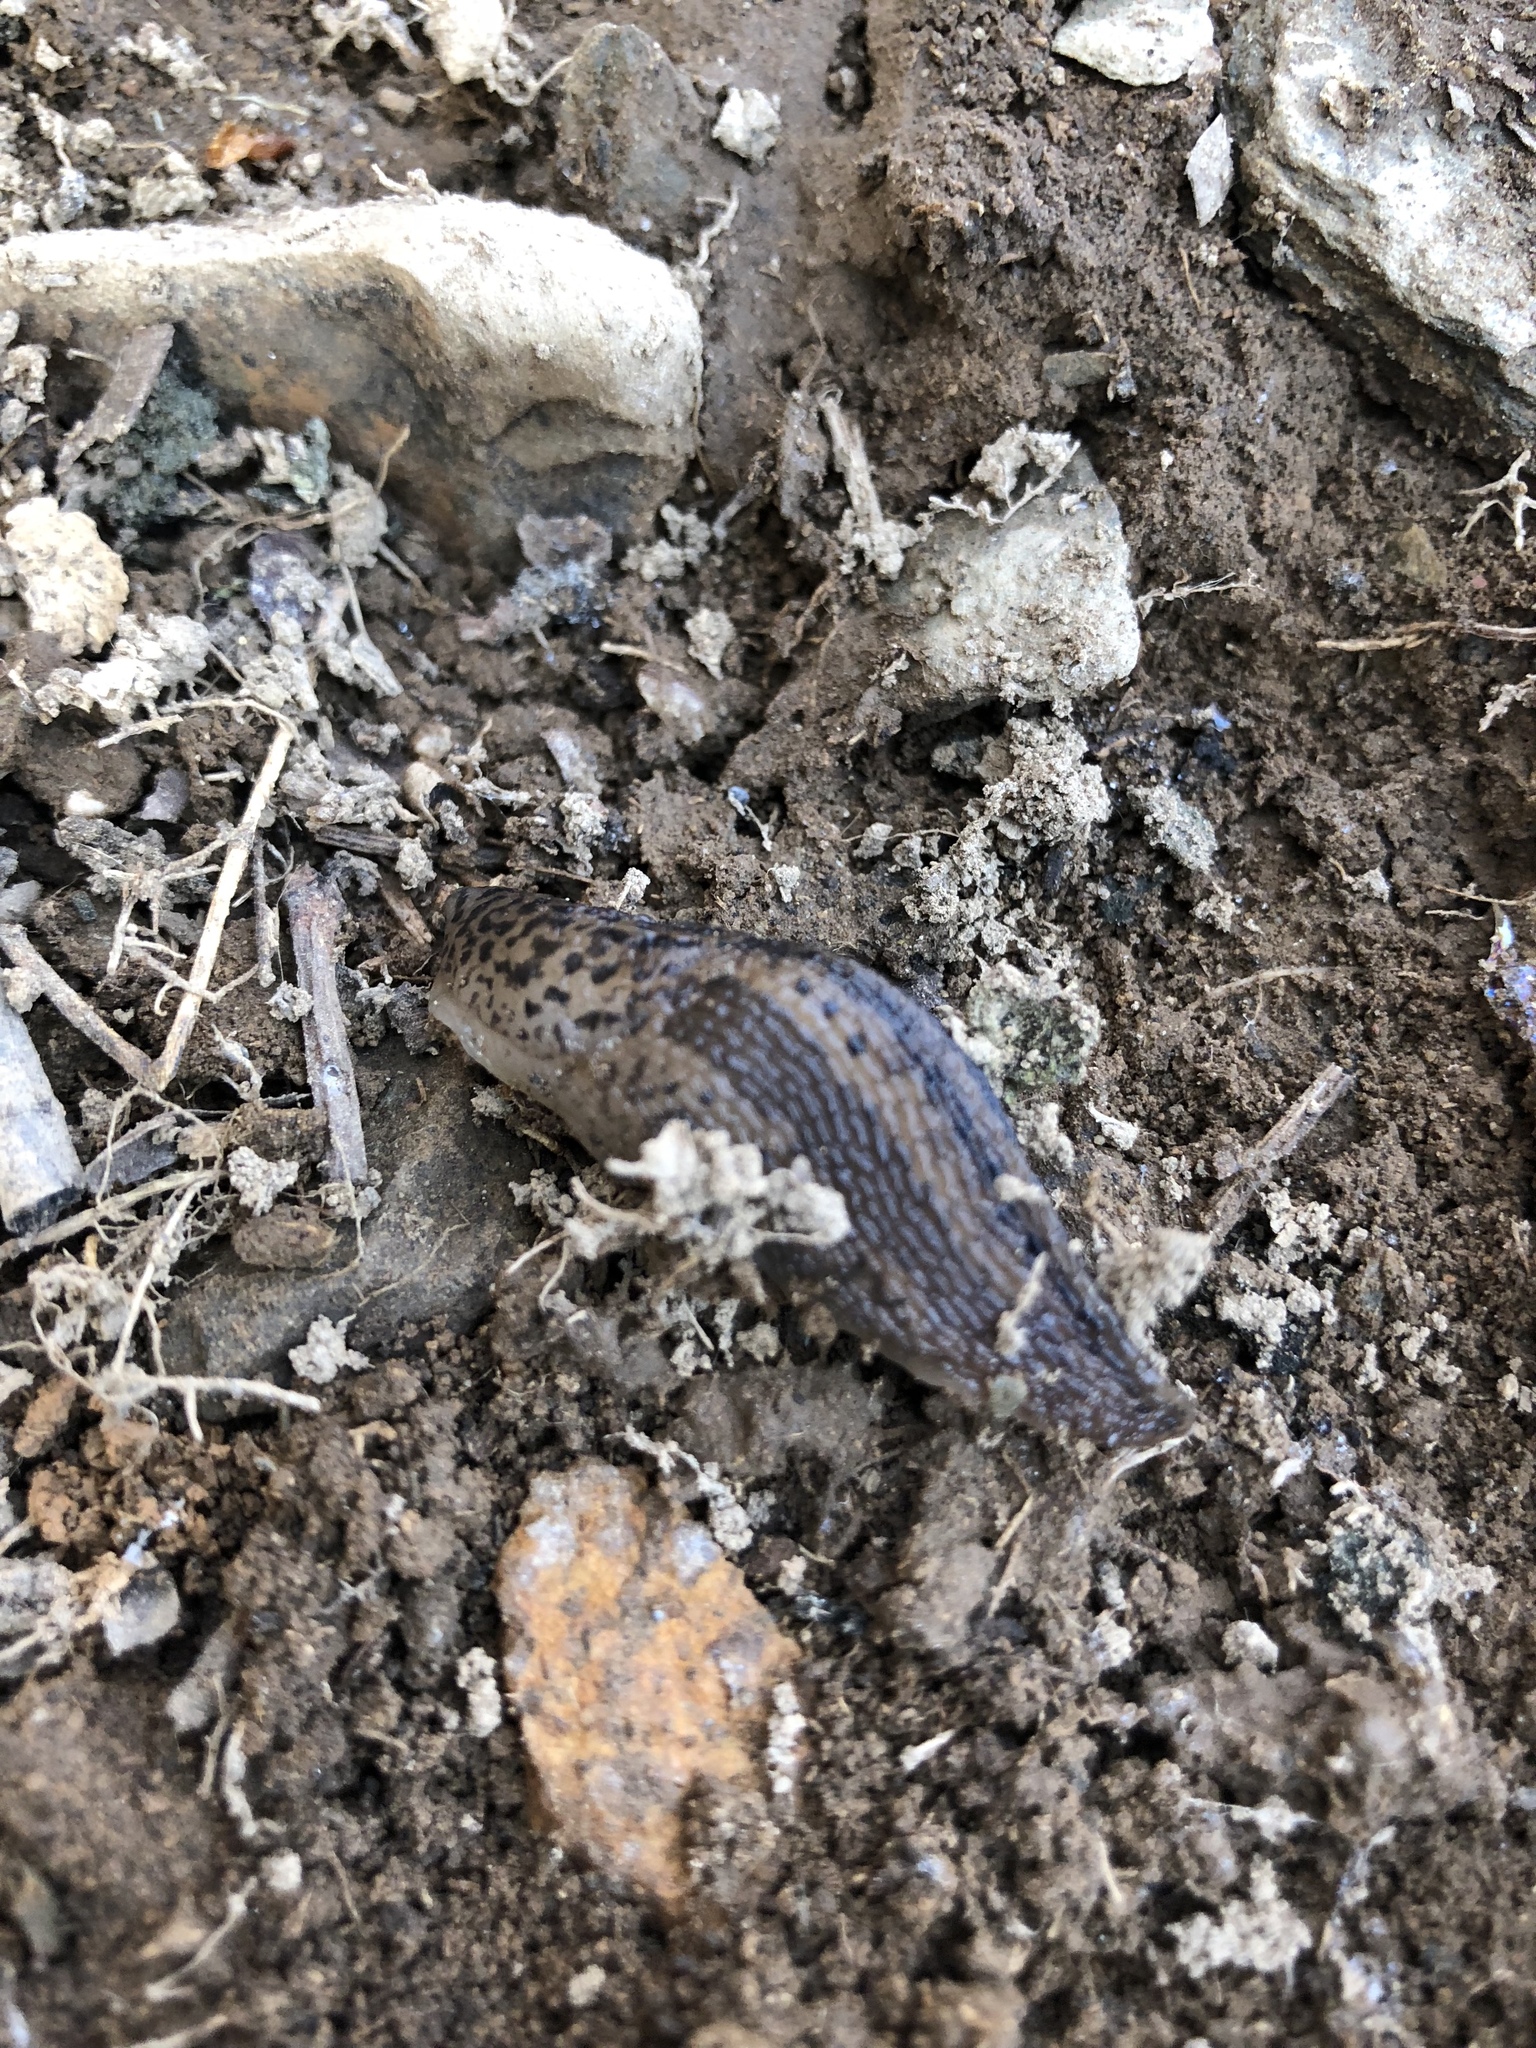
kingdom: Animalia
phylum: Mollusca
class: Gastropoda
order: Stylommatophora
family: Limacidae
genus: Limax
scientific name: Limax maximus
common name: Great grey slug
